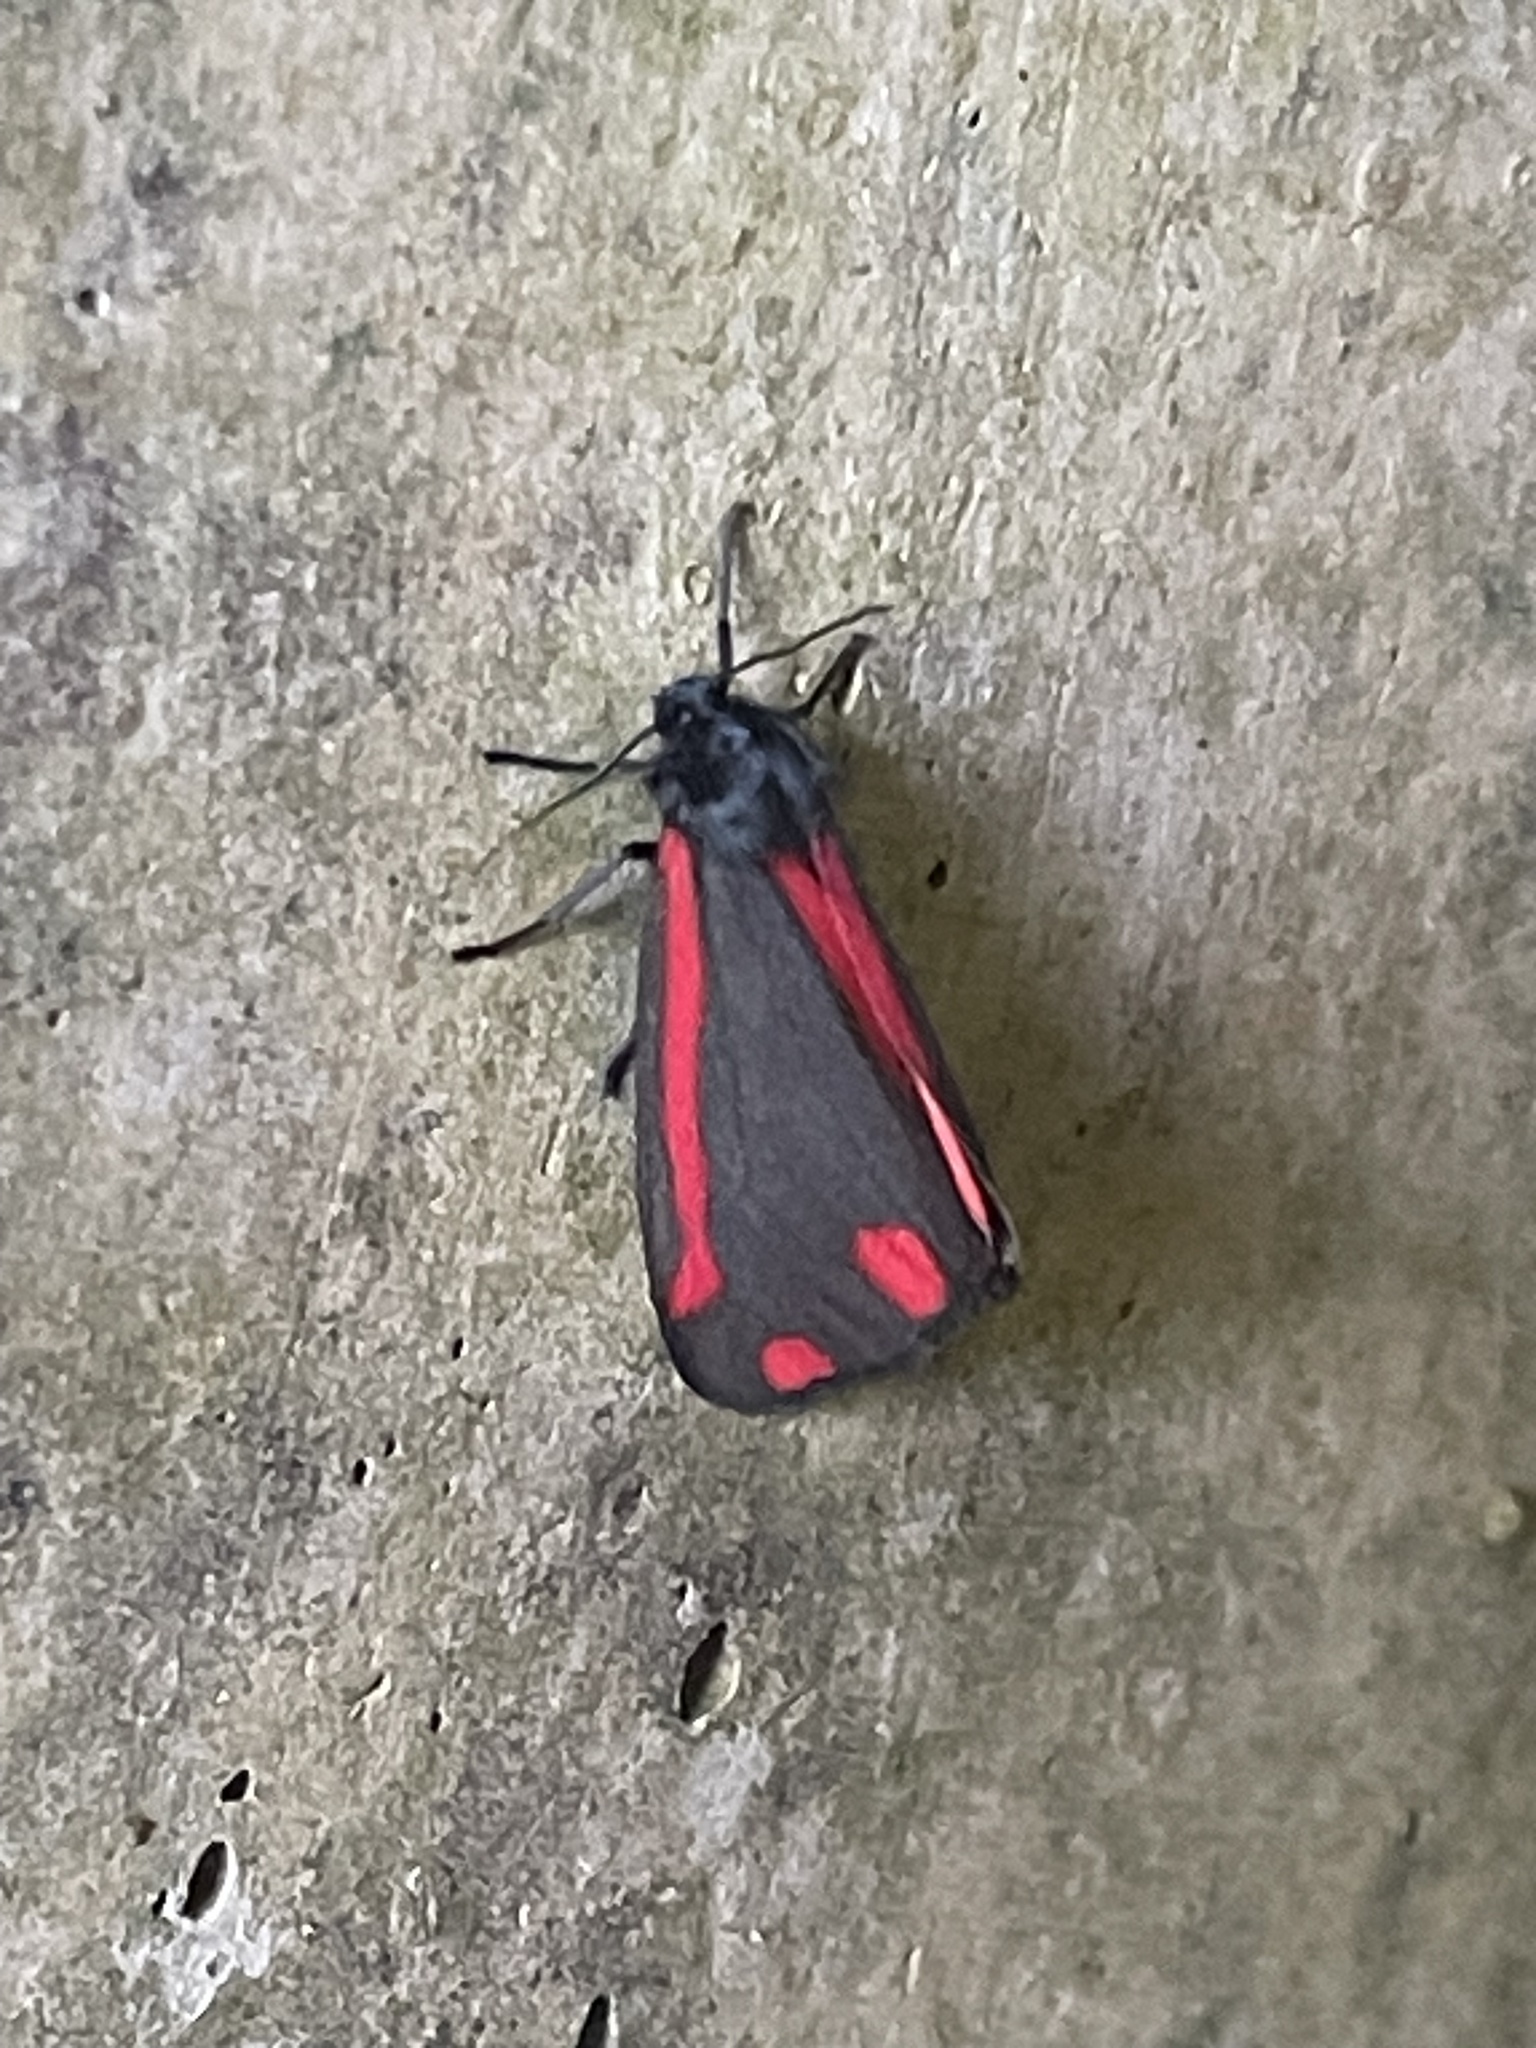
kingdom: Animalia
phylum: Arthropoda
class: Insecta
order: Lepidoptera
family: Erebidae
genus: Tyria
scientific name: Tyria jacobaeae
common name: Cinnabar
